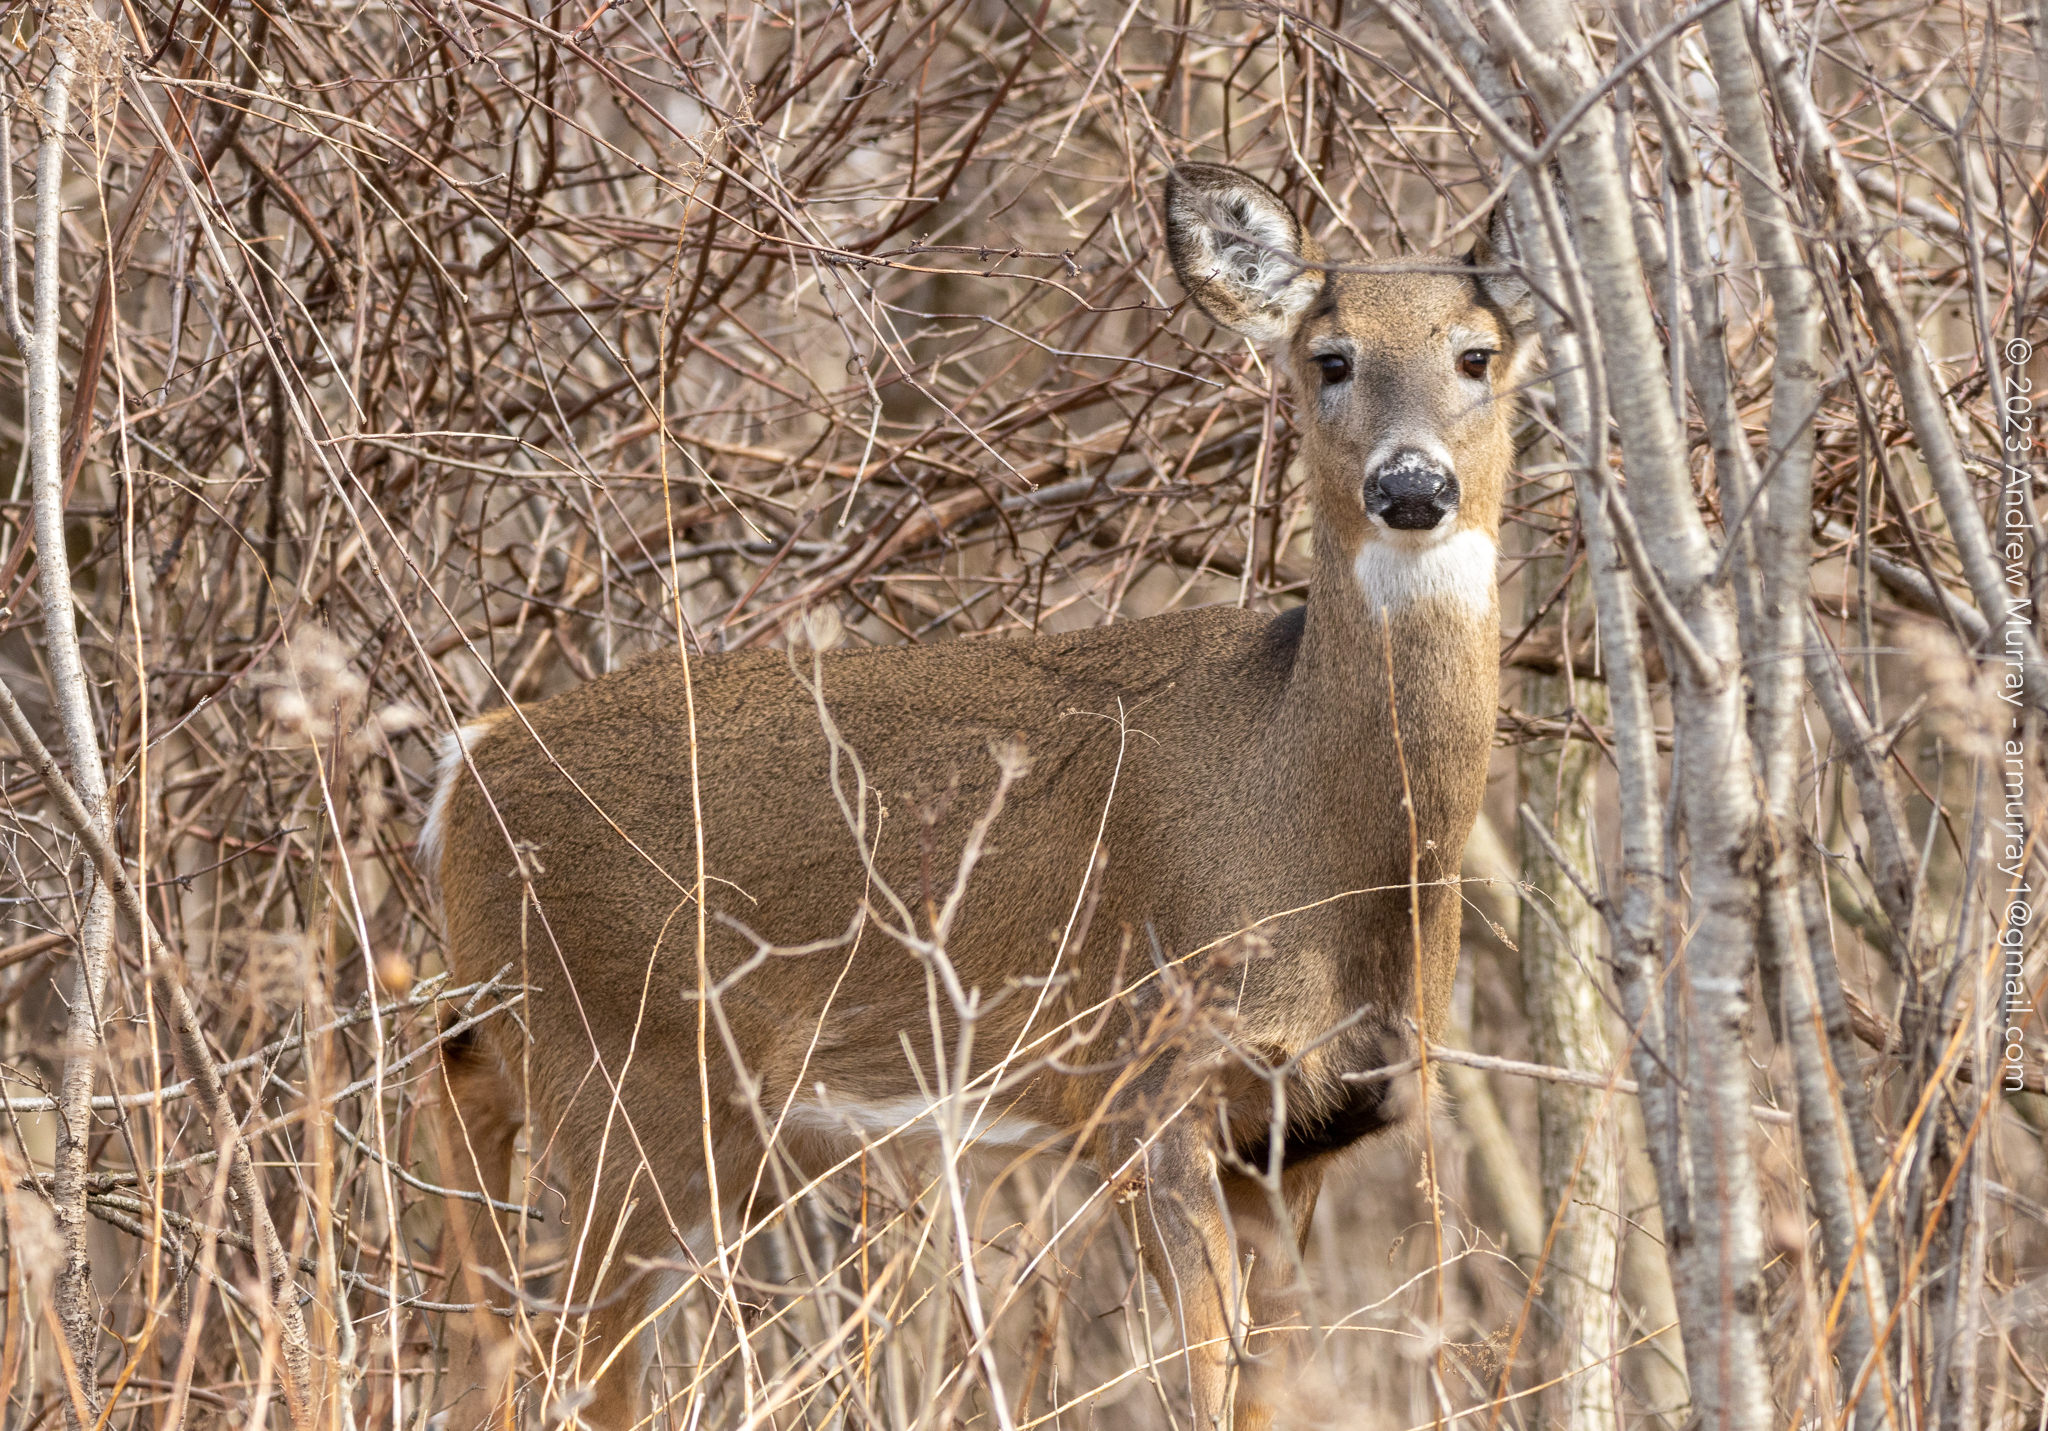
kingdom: Animalia
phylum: Chordata
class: Mammalia
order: Artiodactyla
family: Cervidae
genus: Odocoileus
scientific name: Odocoileus virginianus
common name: White-tailed deer
